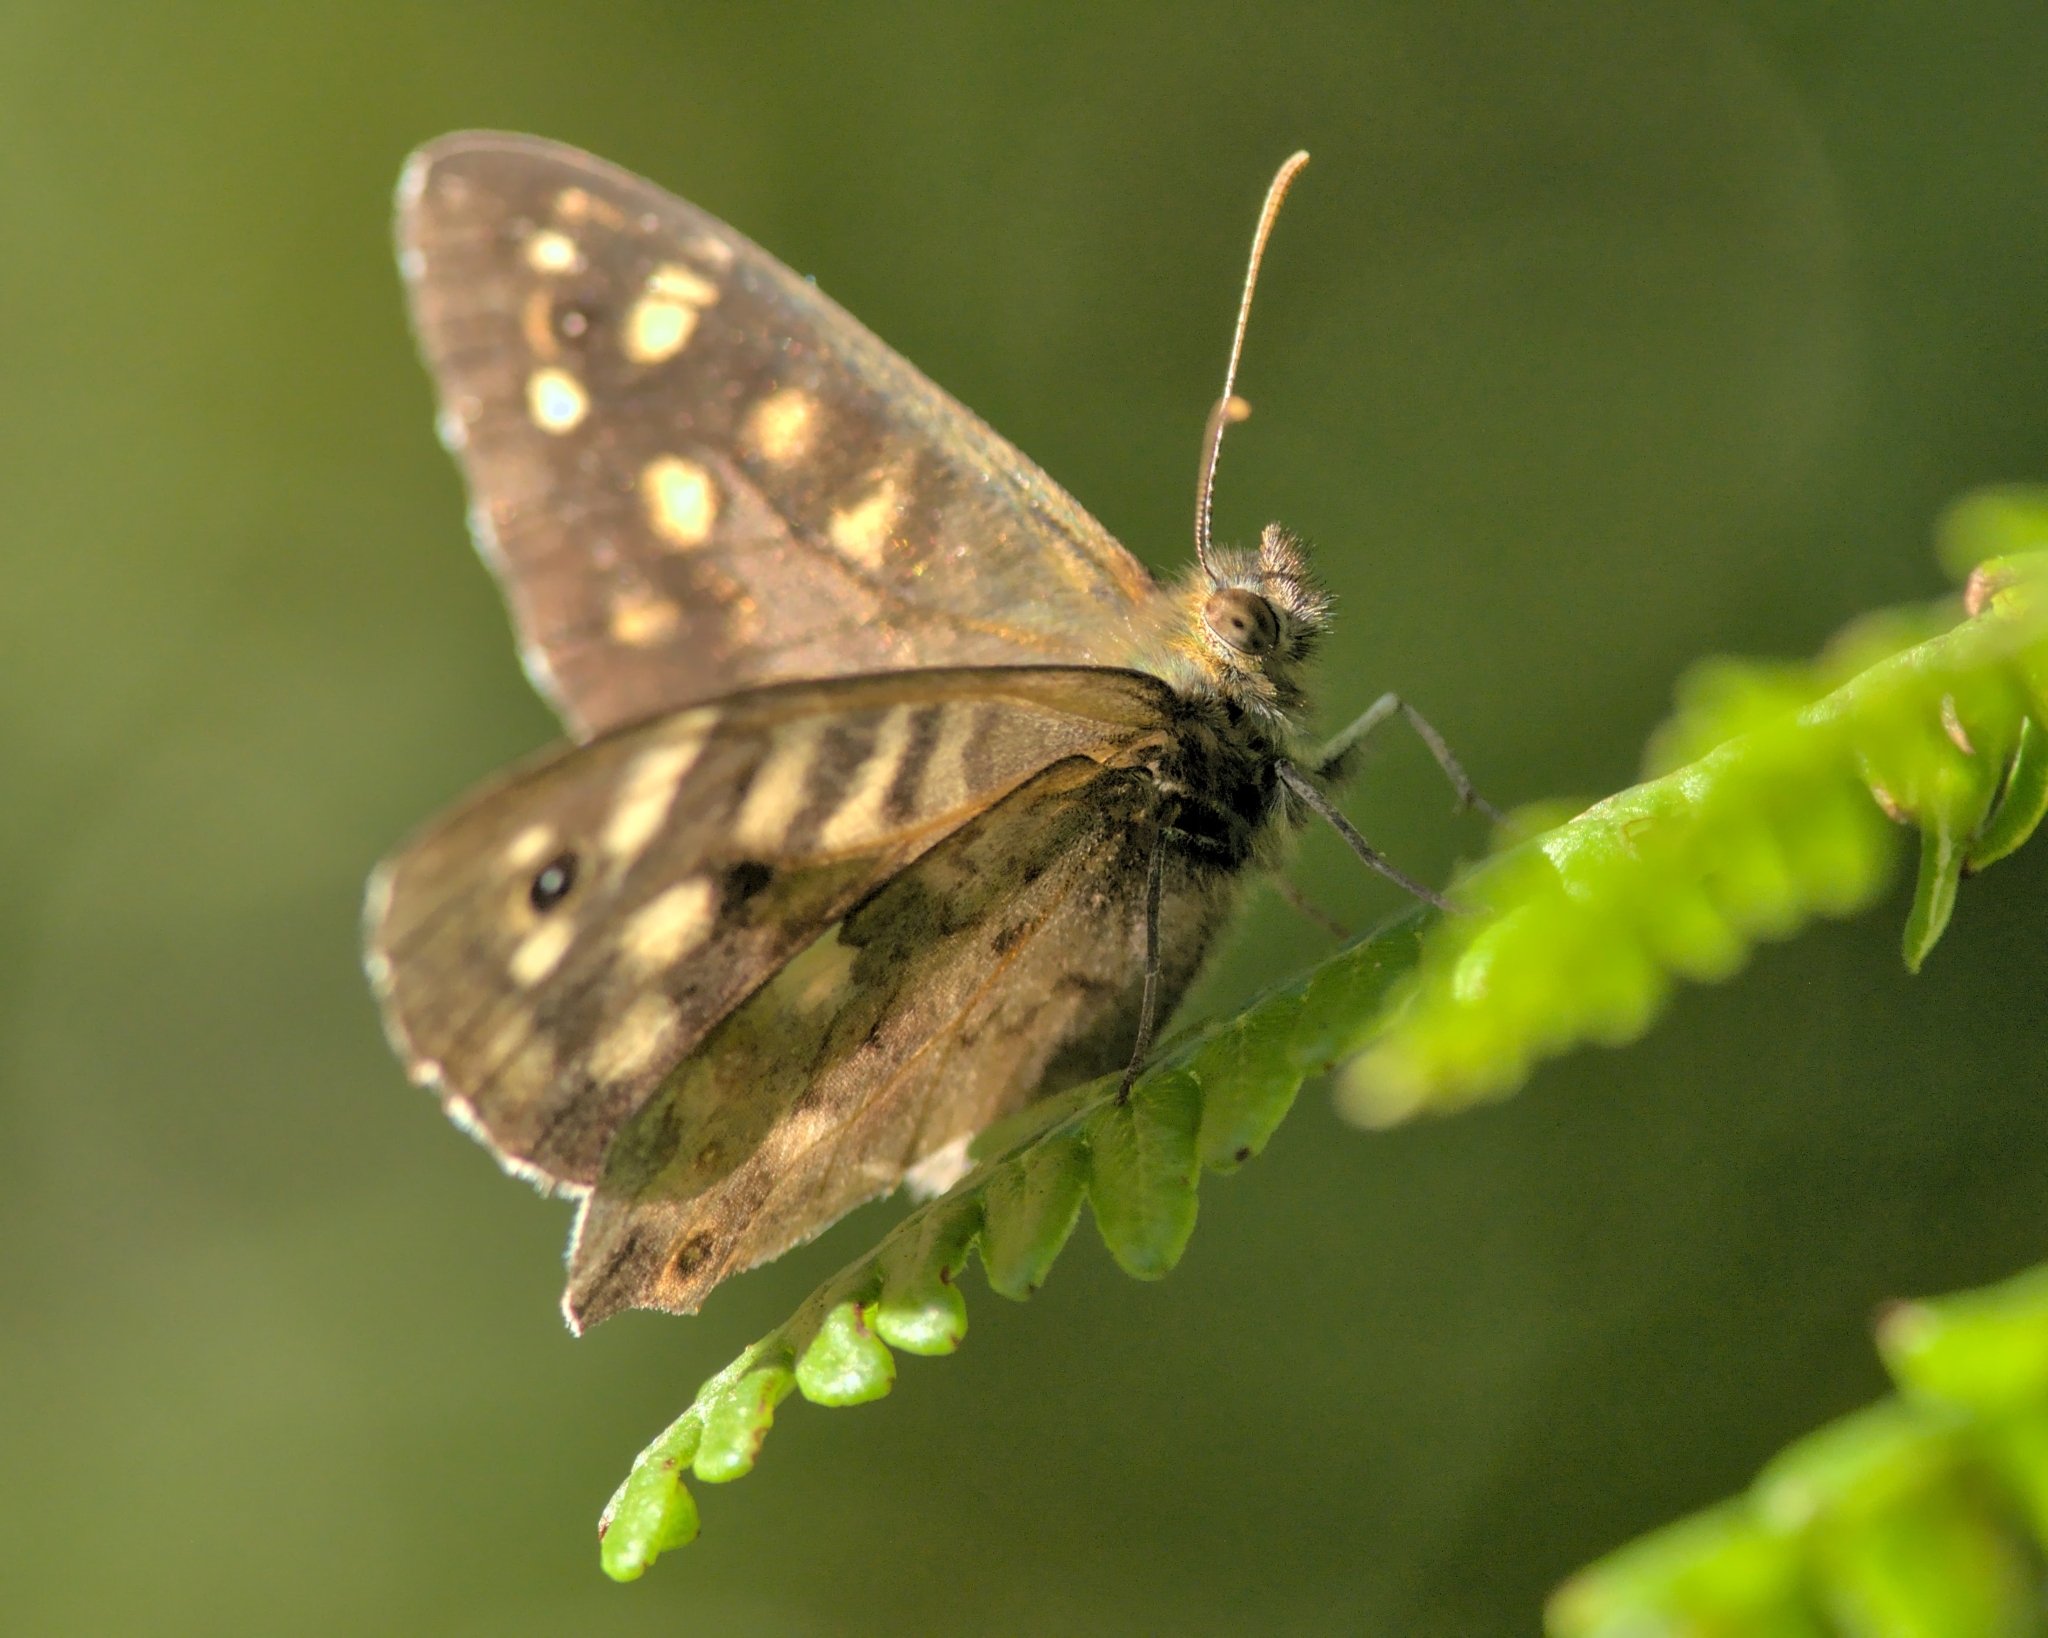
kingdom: Animalia
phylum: Arthropoda
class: Insecta
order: Lepidoptera
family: Nymphalidae
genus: Pararge
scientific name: Pararge aegeria
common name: Speckled wood
